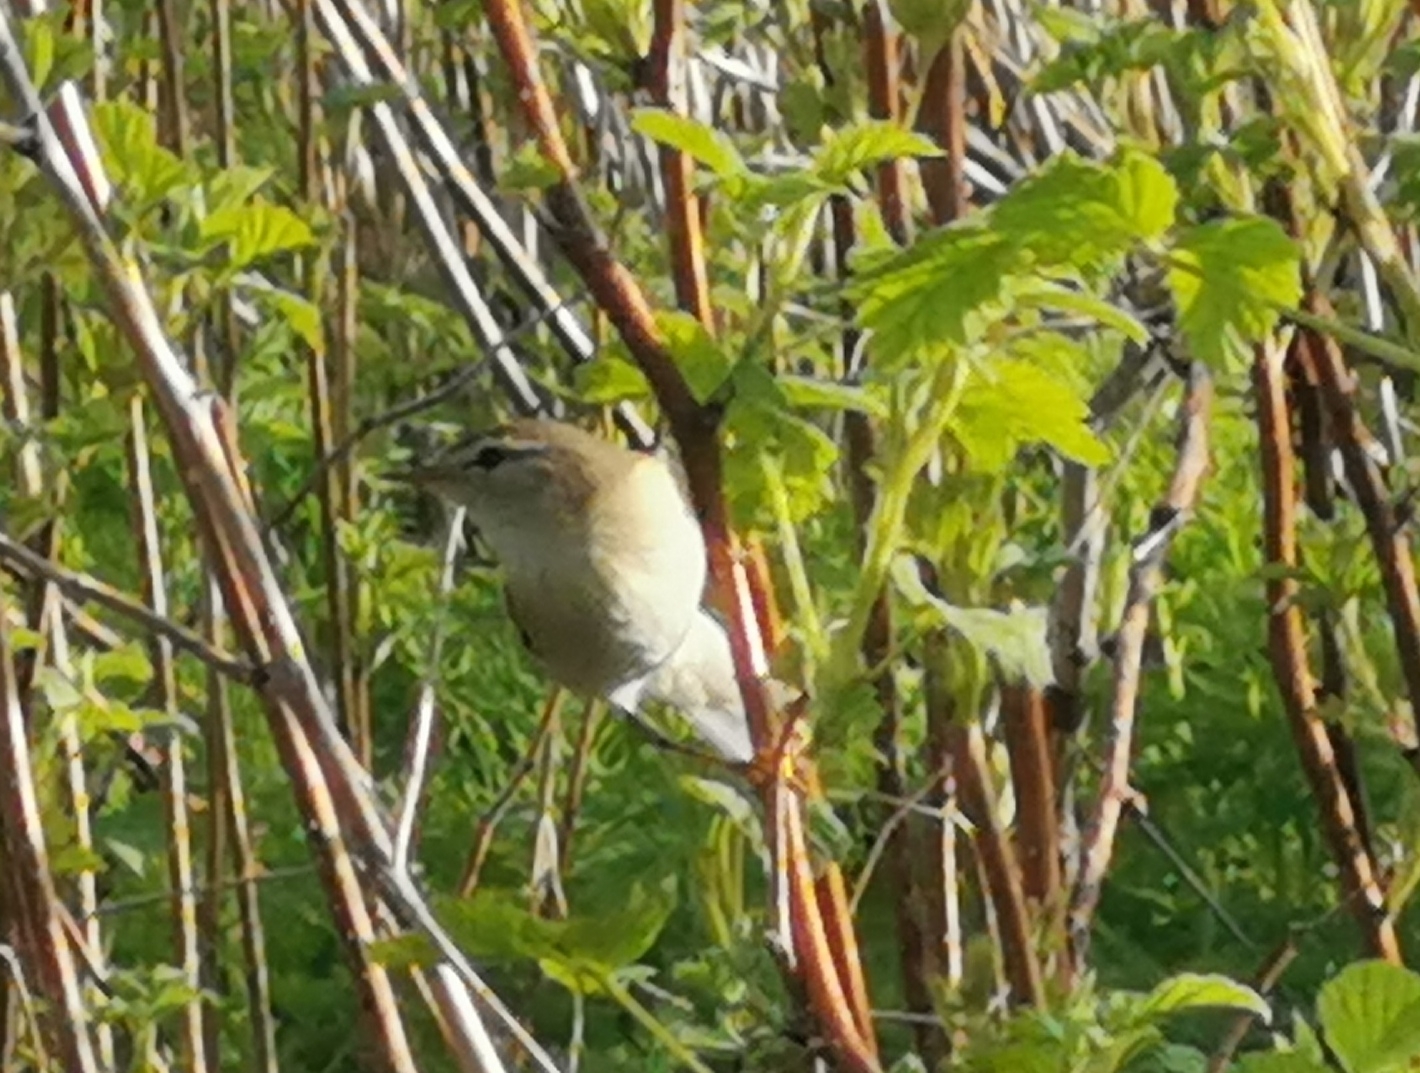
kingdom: Animalia
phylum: Chordata
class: Aves
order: Passeriformes
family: Phylloscopidae
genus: Phylloscopus
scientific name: Phylloscopus trochilus
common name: Willow warbler
